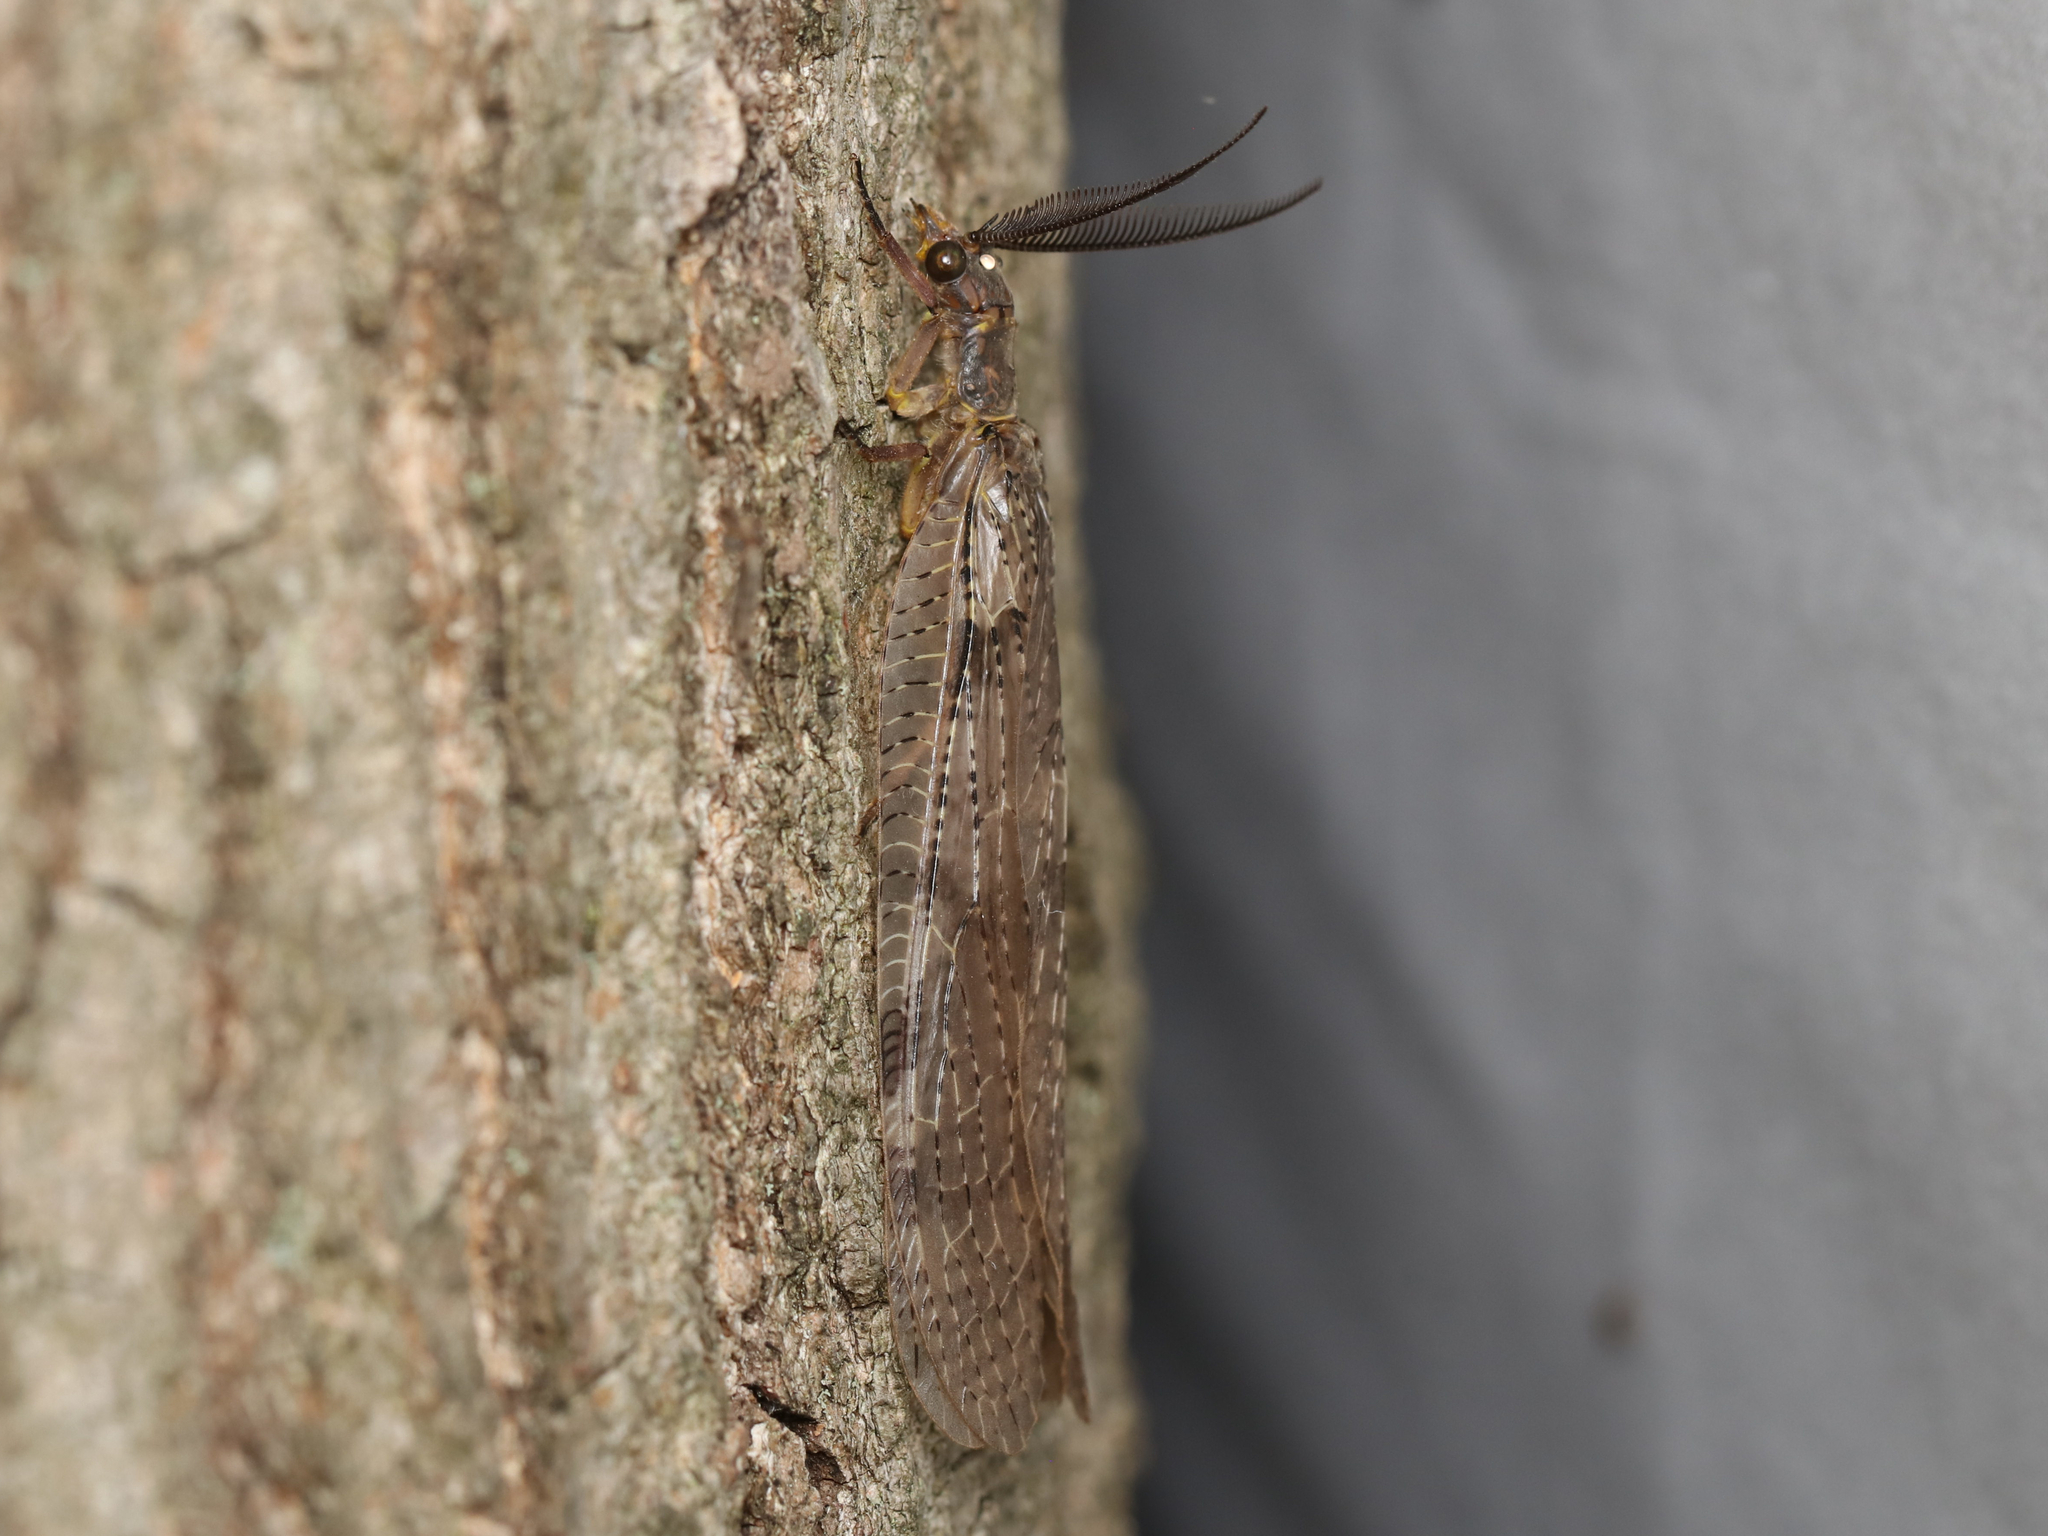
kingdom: Animalia
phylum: Arthropoda
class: Insecta
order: Megaloptera
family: Corydalidae
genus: Chauliodes
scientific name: Chauliodes pectinicornis
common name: Summer fishfly
